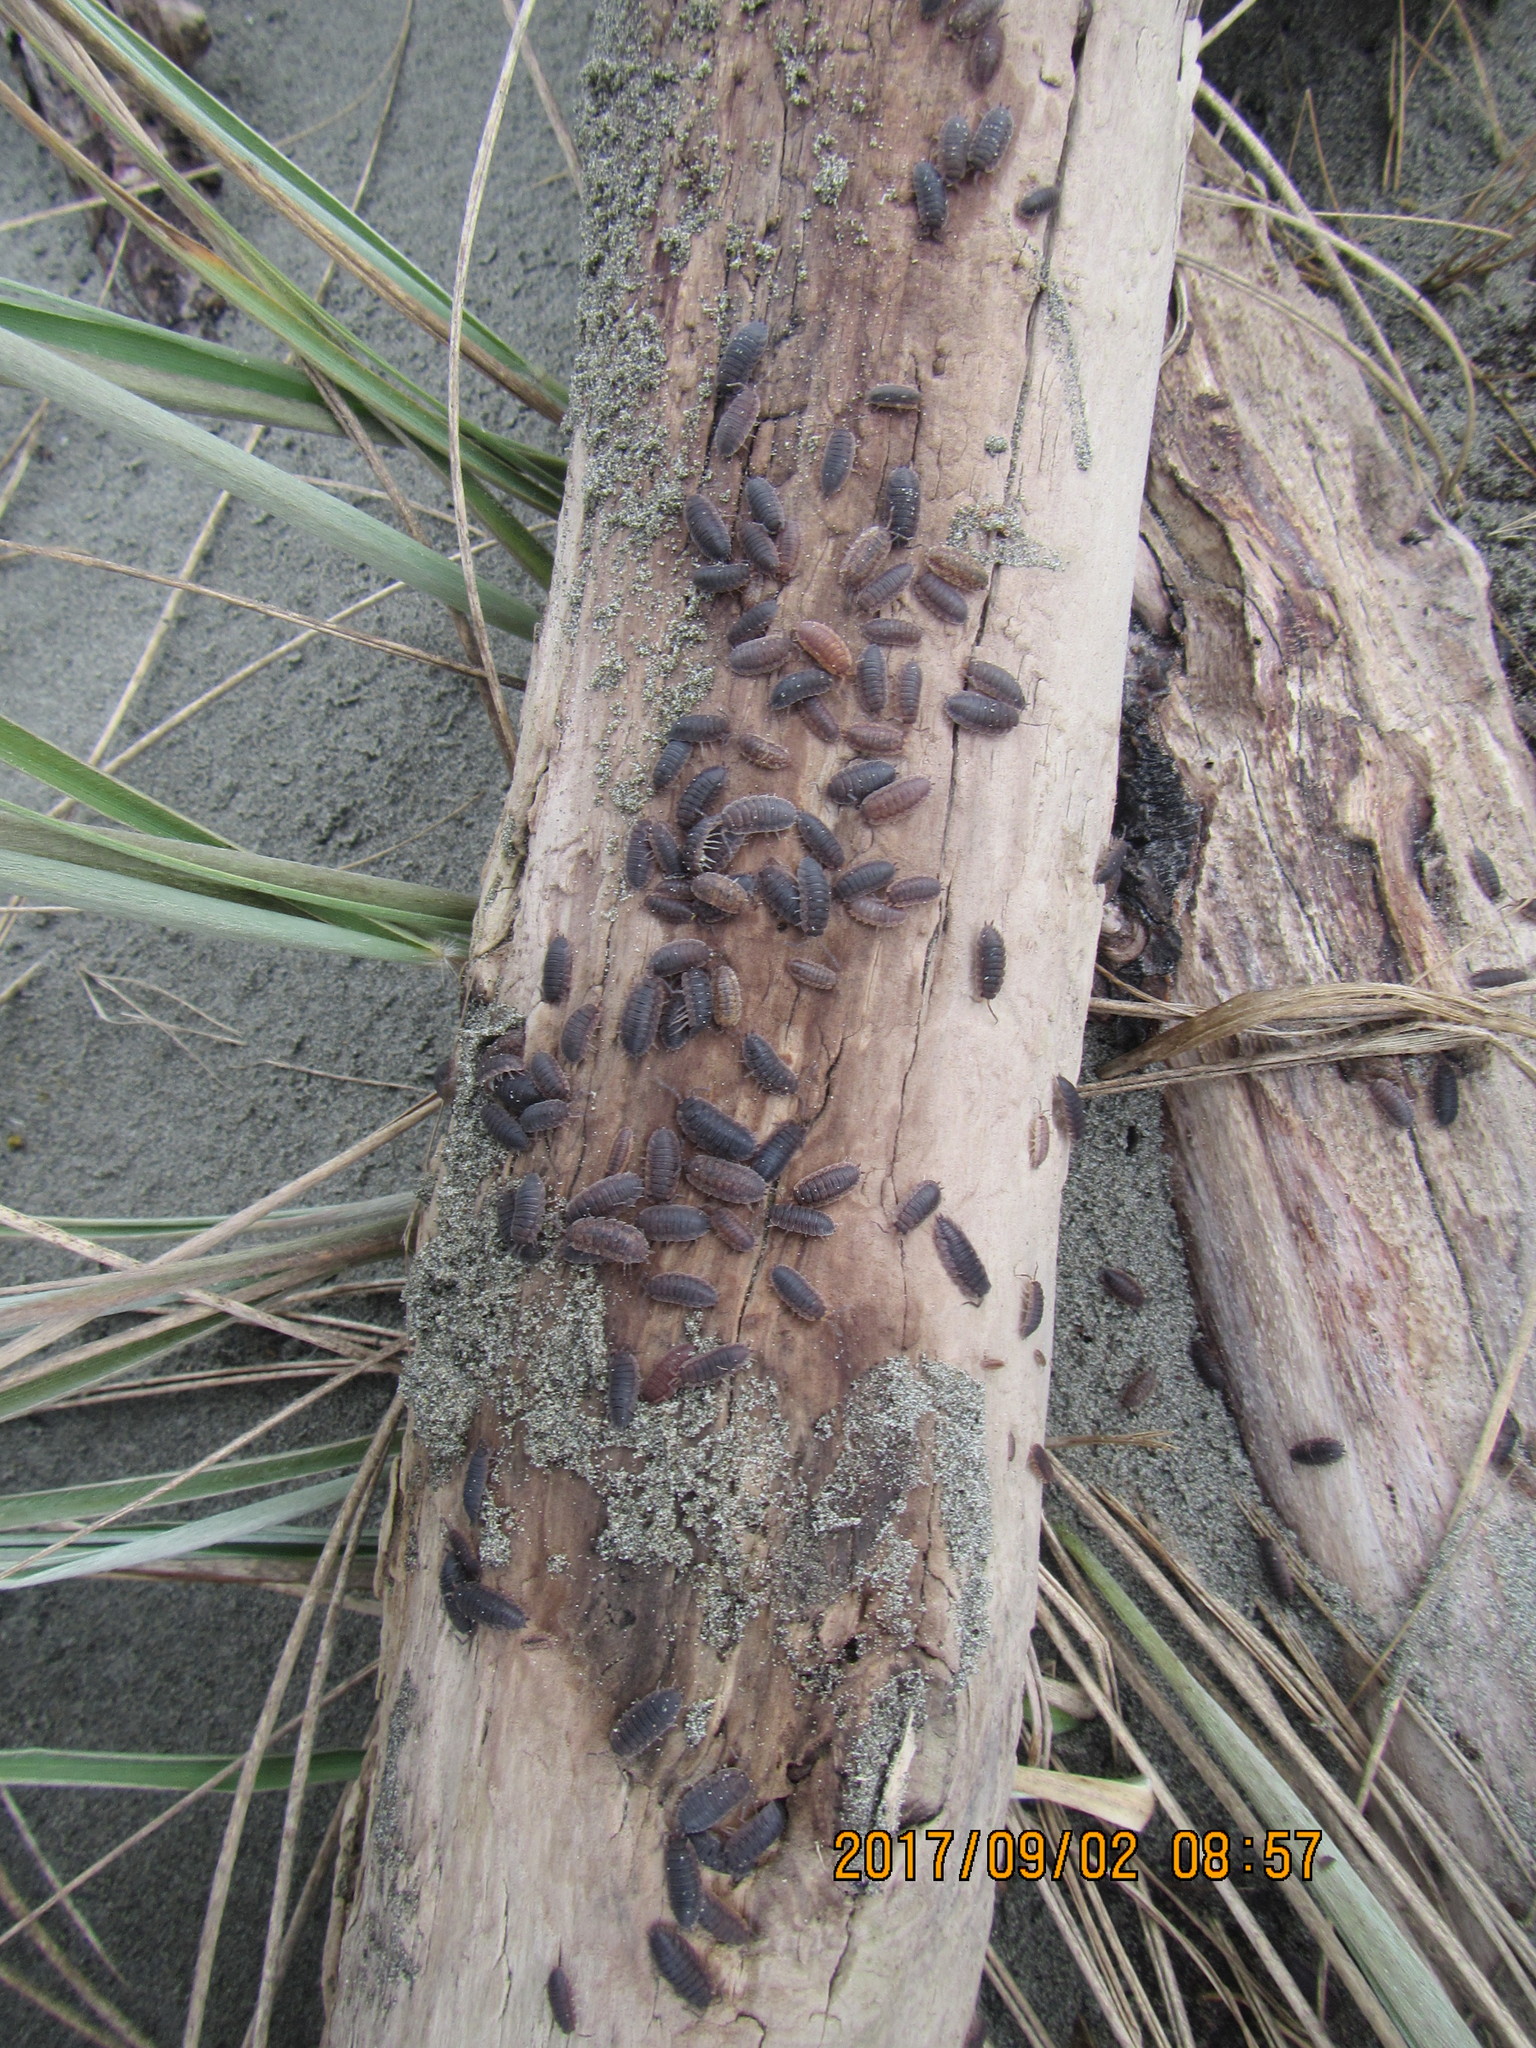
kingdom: Animalia
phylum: Arthropoda
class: Malacostraca
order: Isopoda
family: Porcellionidae
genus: Porcellio
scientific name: Porcellio scaber
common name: Common rough woodlouse
